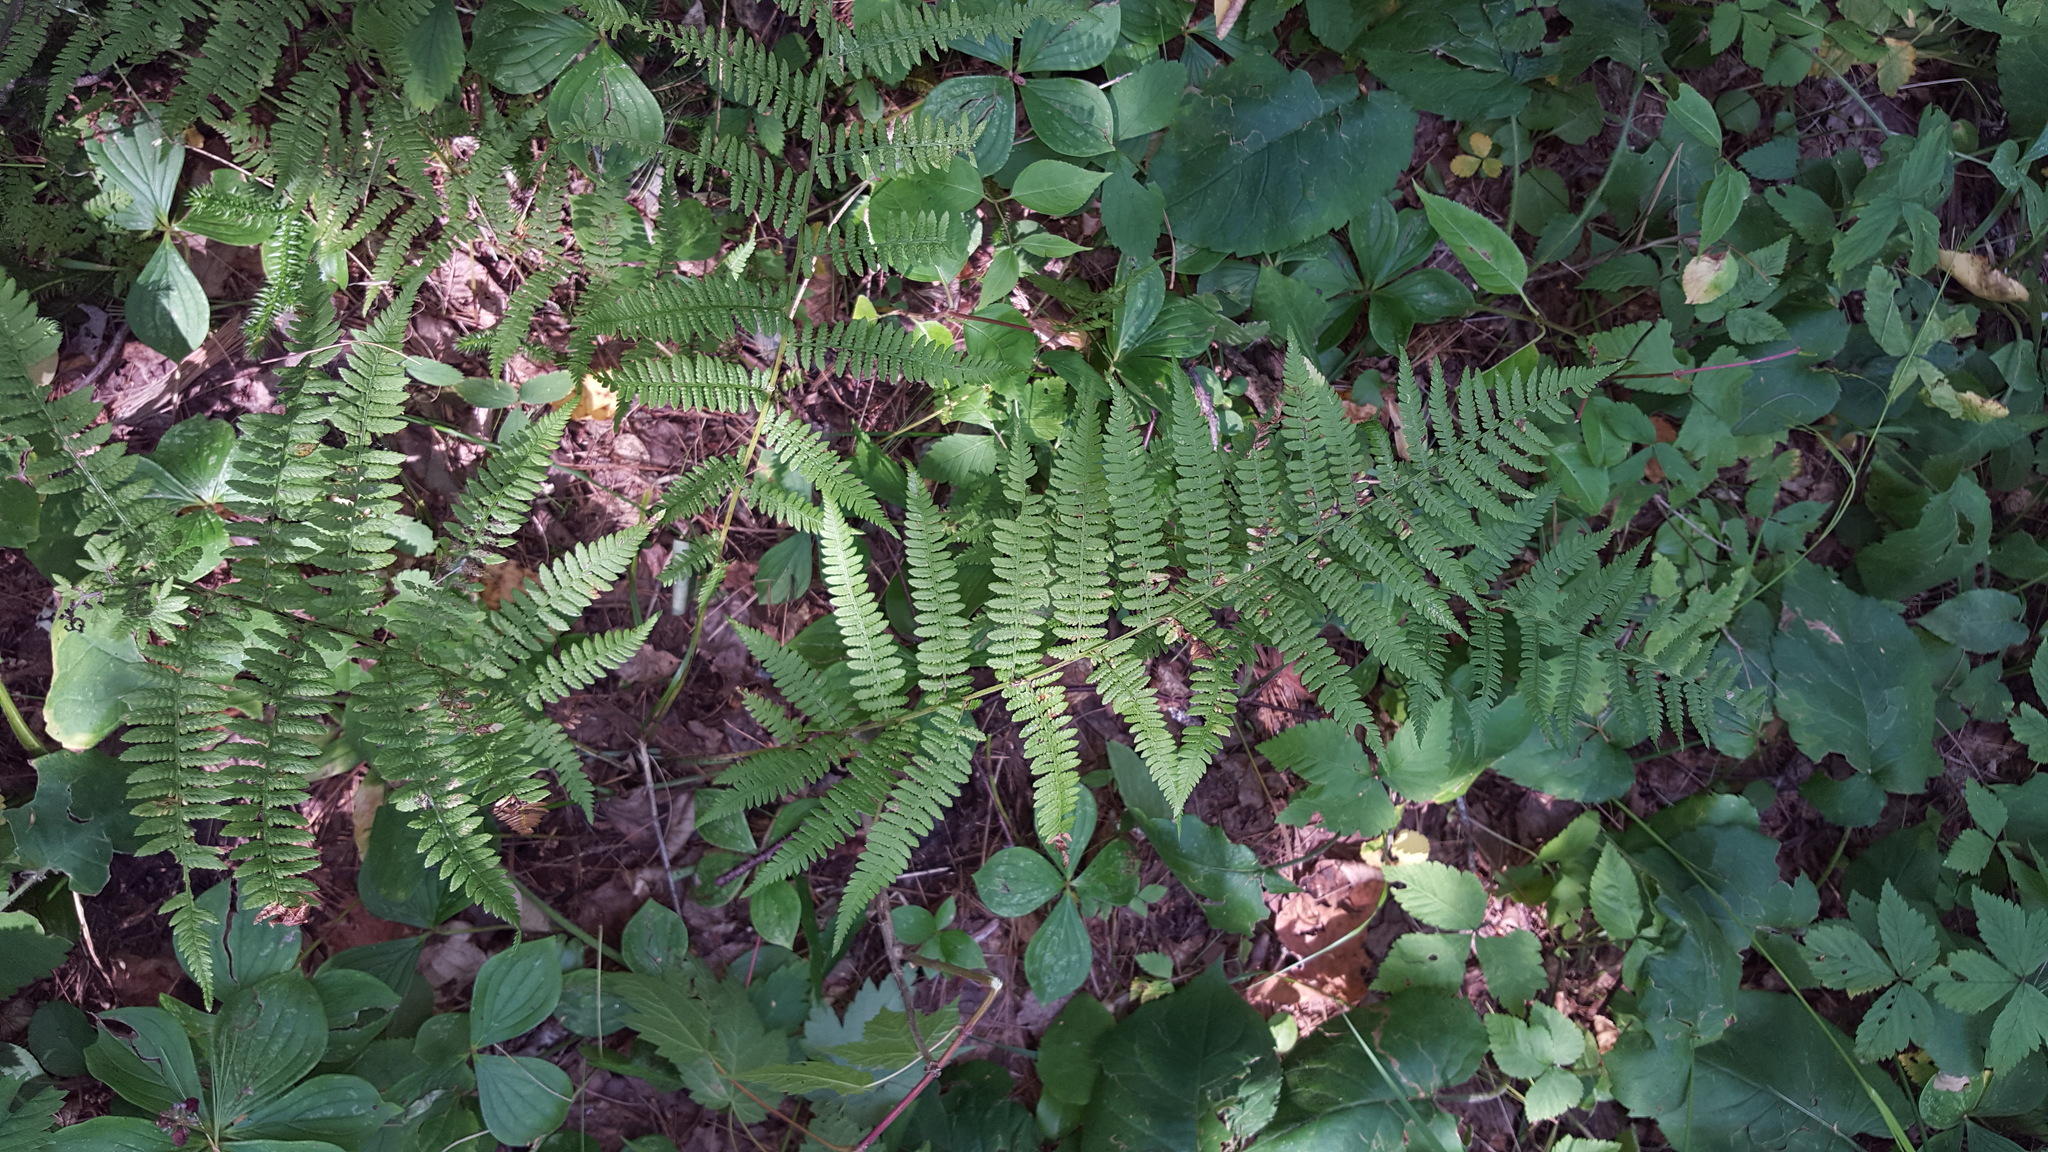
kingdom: Plantae
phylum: Tracheophyta
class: Polypodiopsida
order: Polypodiales
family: Athyriaceae
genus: Athyrium
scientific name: Athyrium angustum
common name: Northern lady fern
